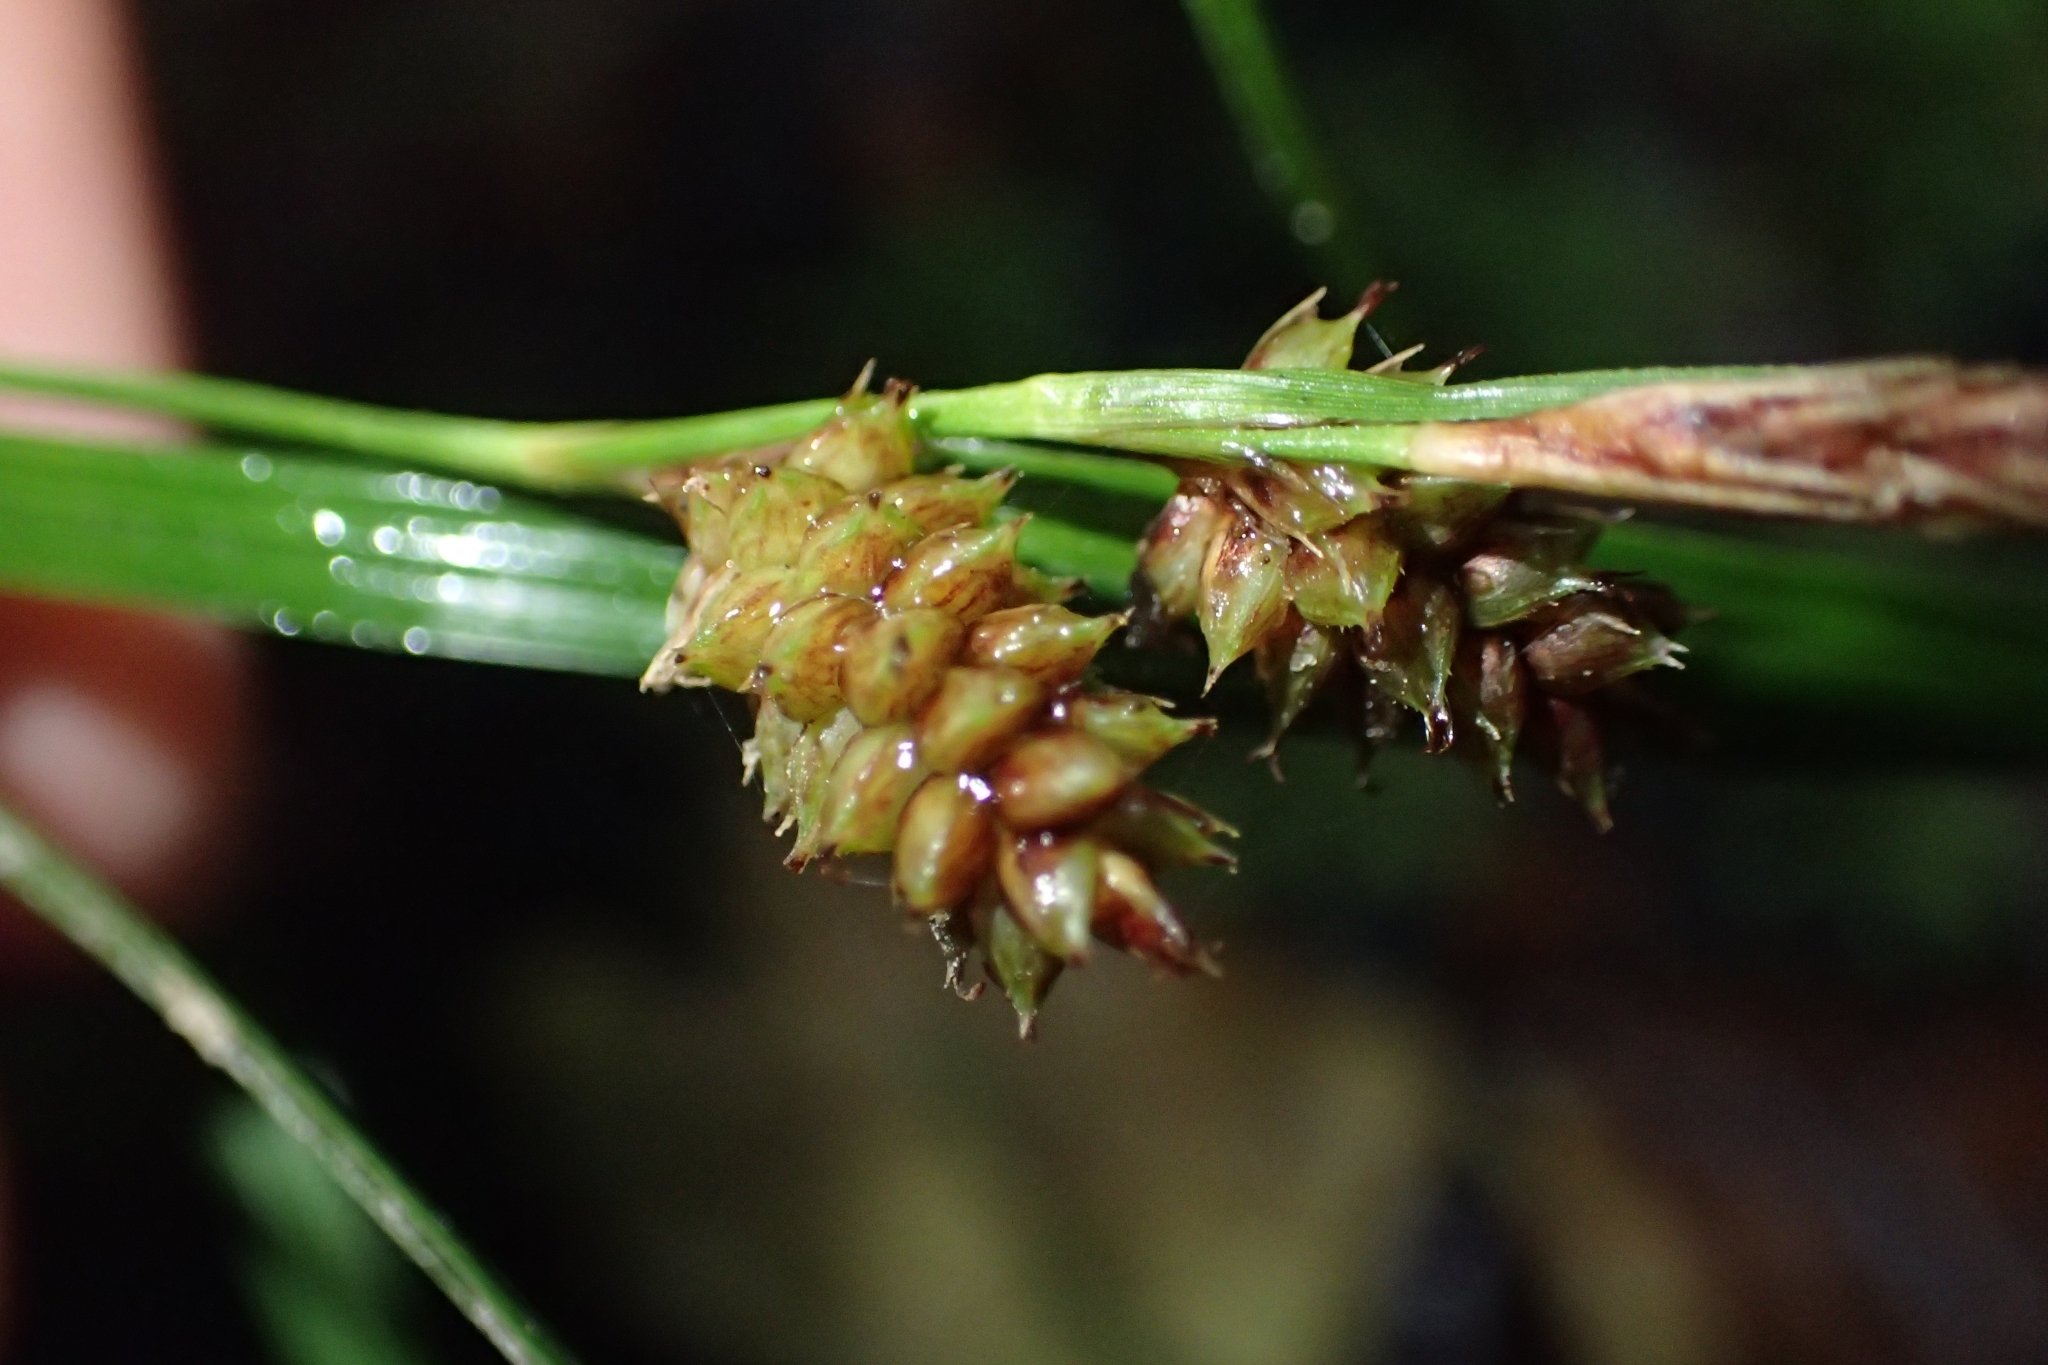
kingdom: Plantae
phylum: Tracheophyta
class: Liliopsida
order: Poales
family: Cyperaceae
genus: Carex
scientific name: Carex dissita
